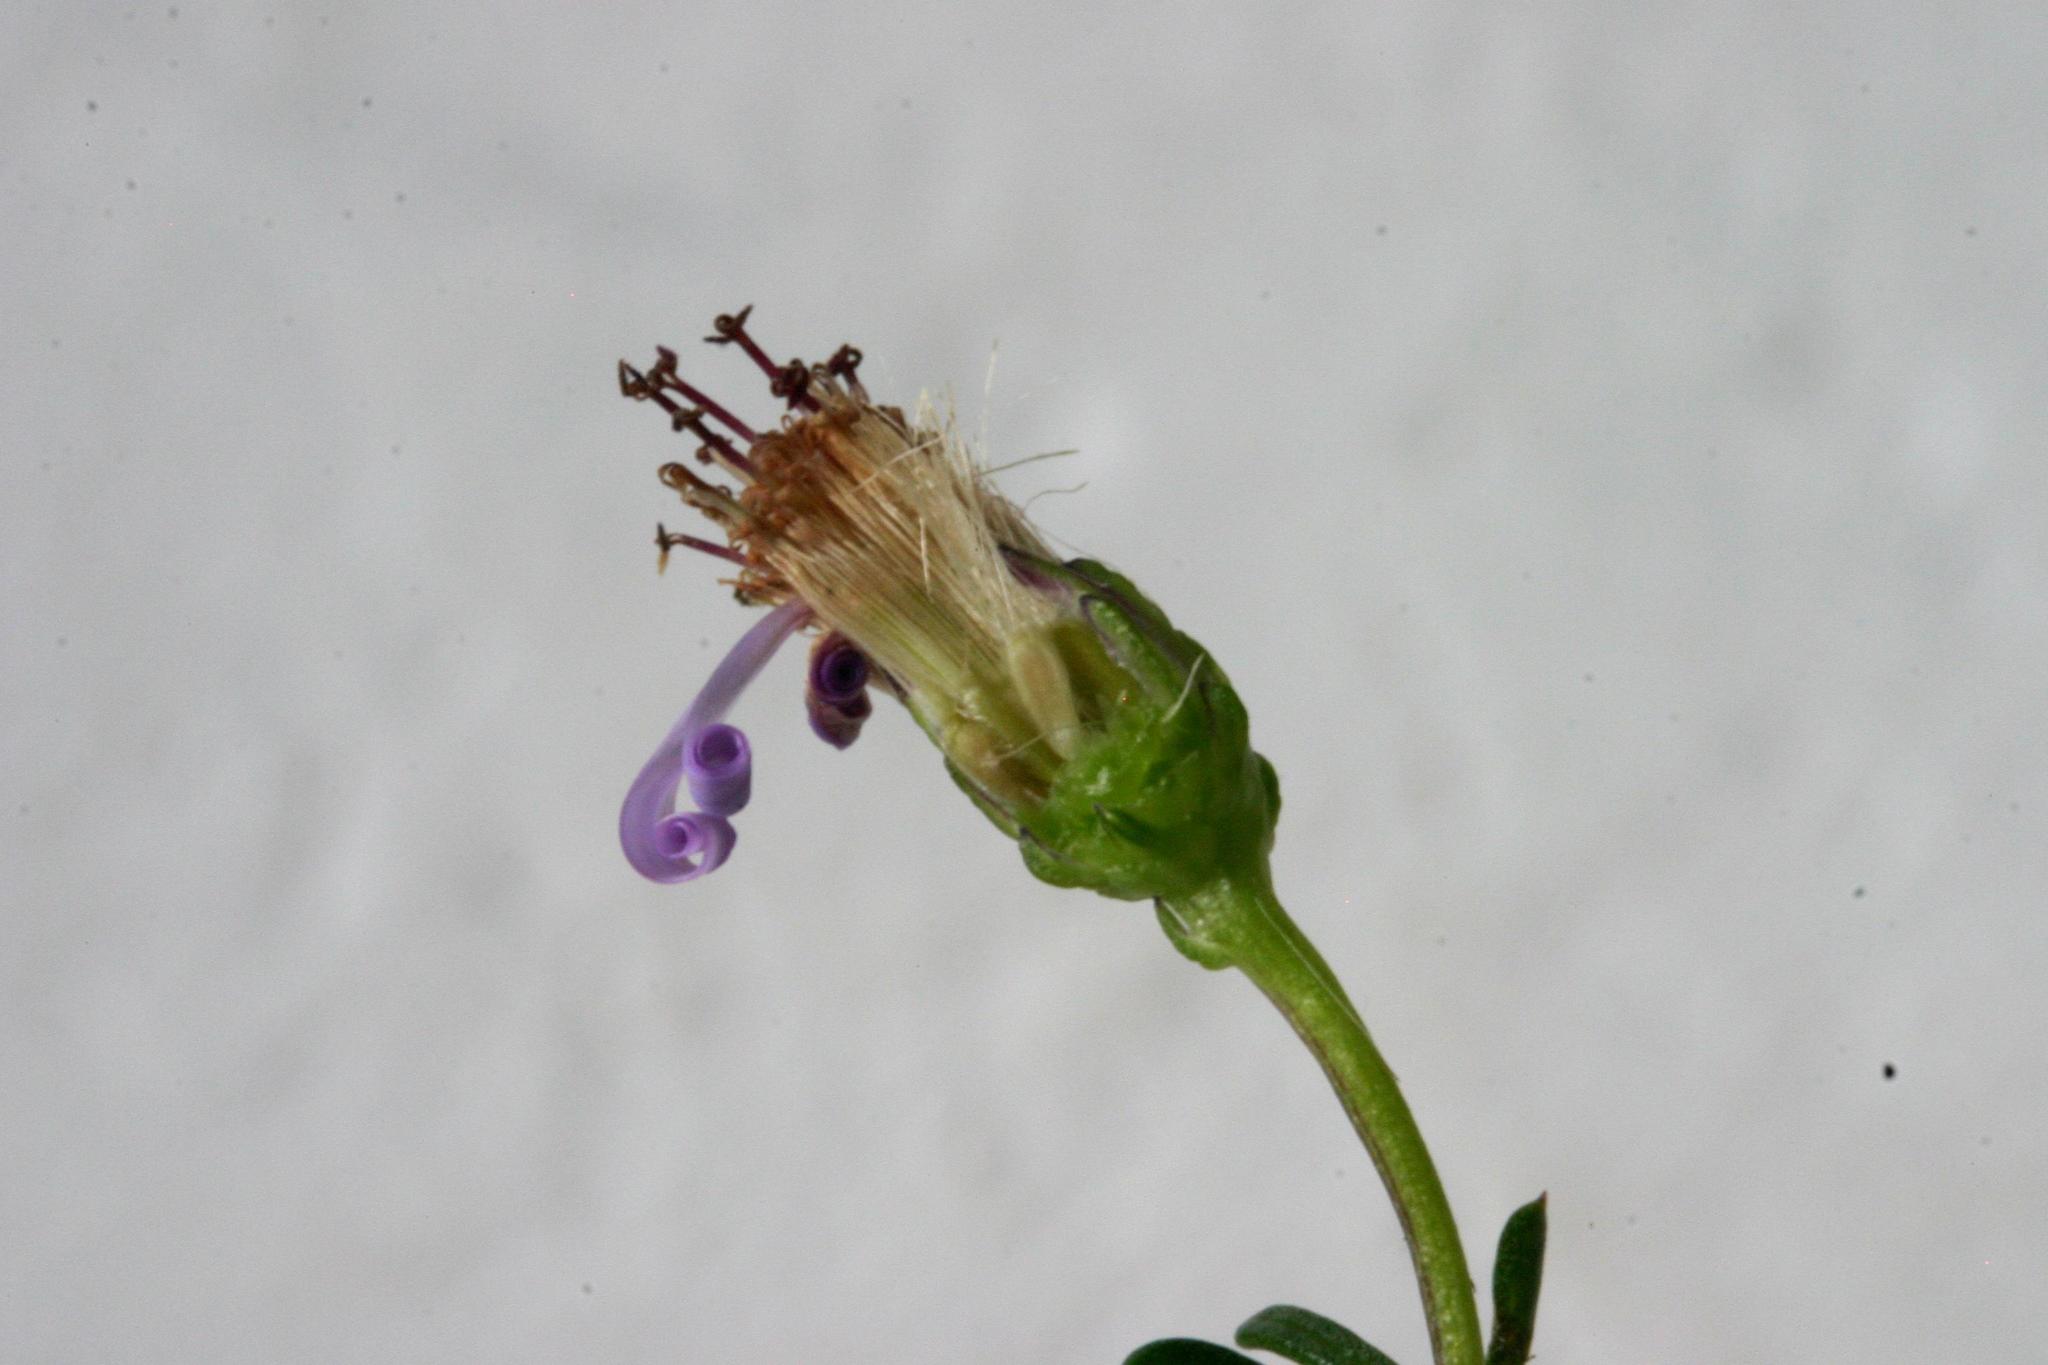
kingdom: Plantae
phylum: Tracheophyta
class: Magnoliopsida
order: Asterales
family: Asteraceae
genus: Felicia
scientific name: Felicia filifolia
